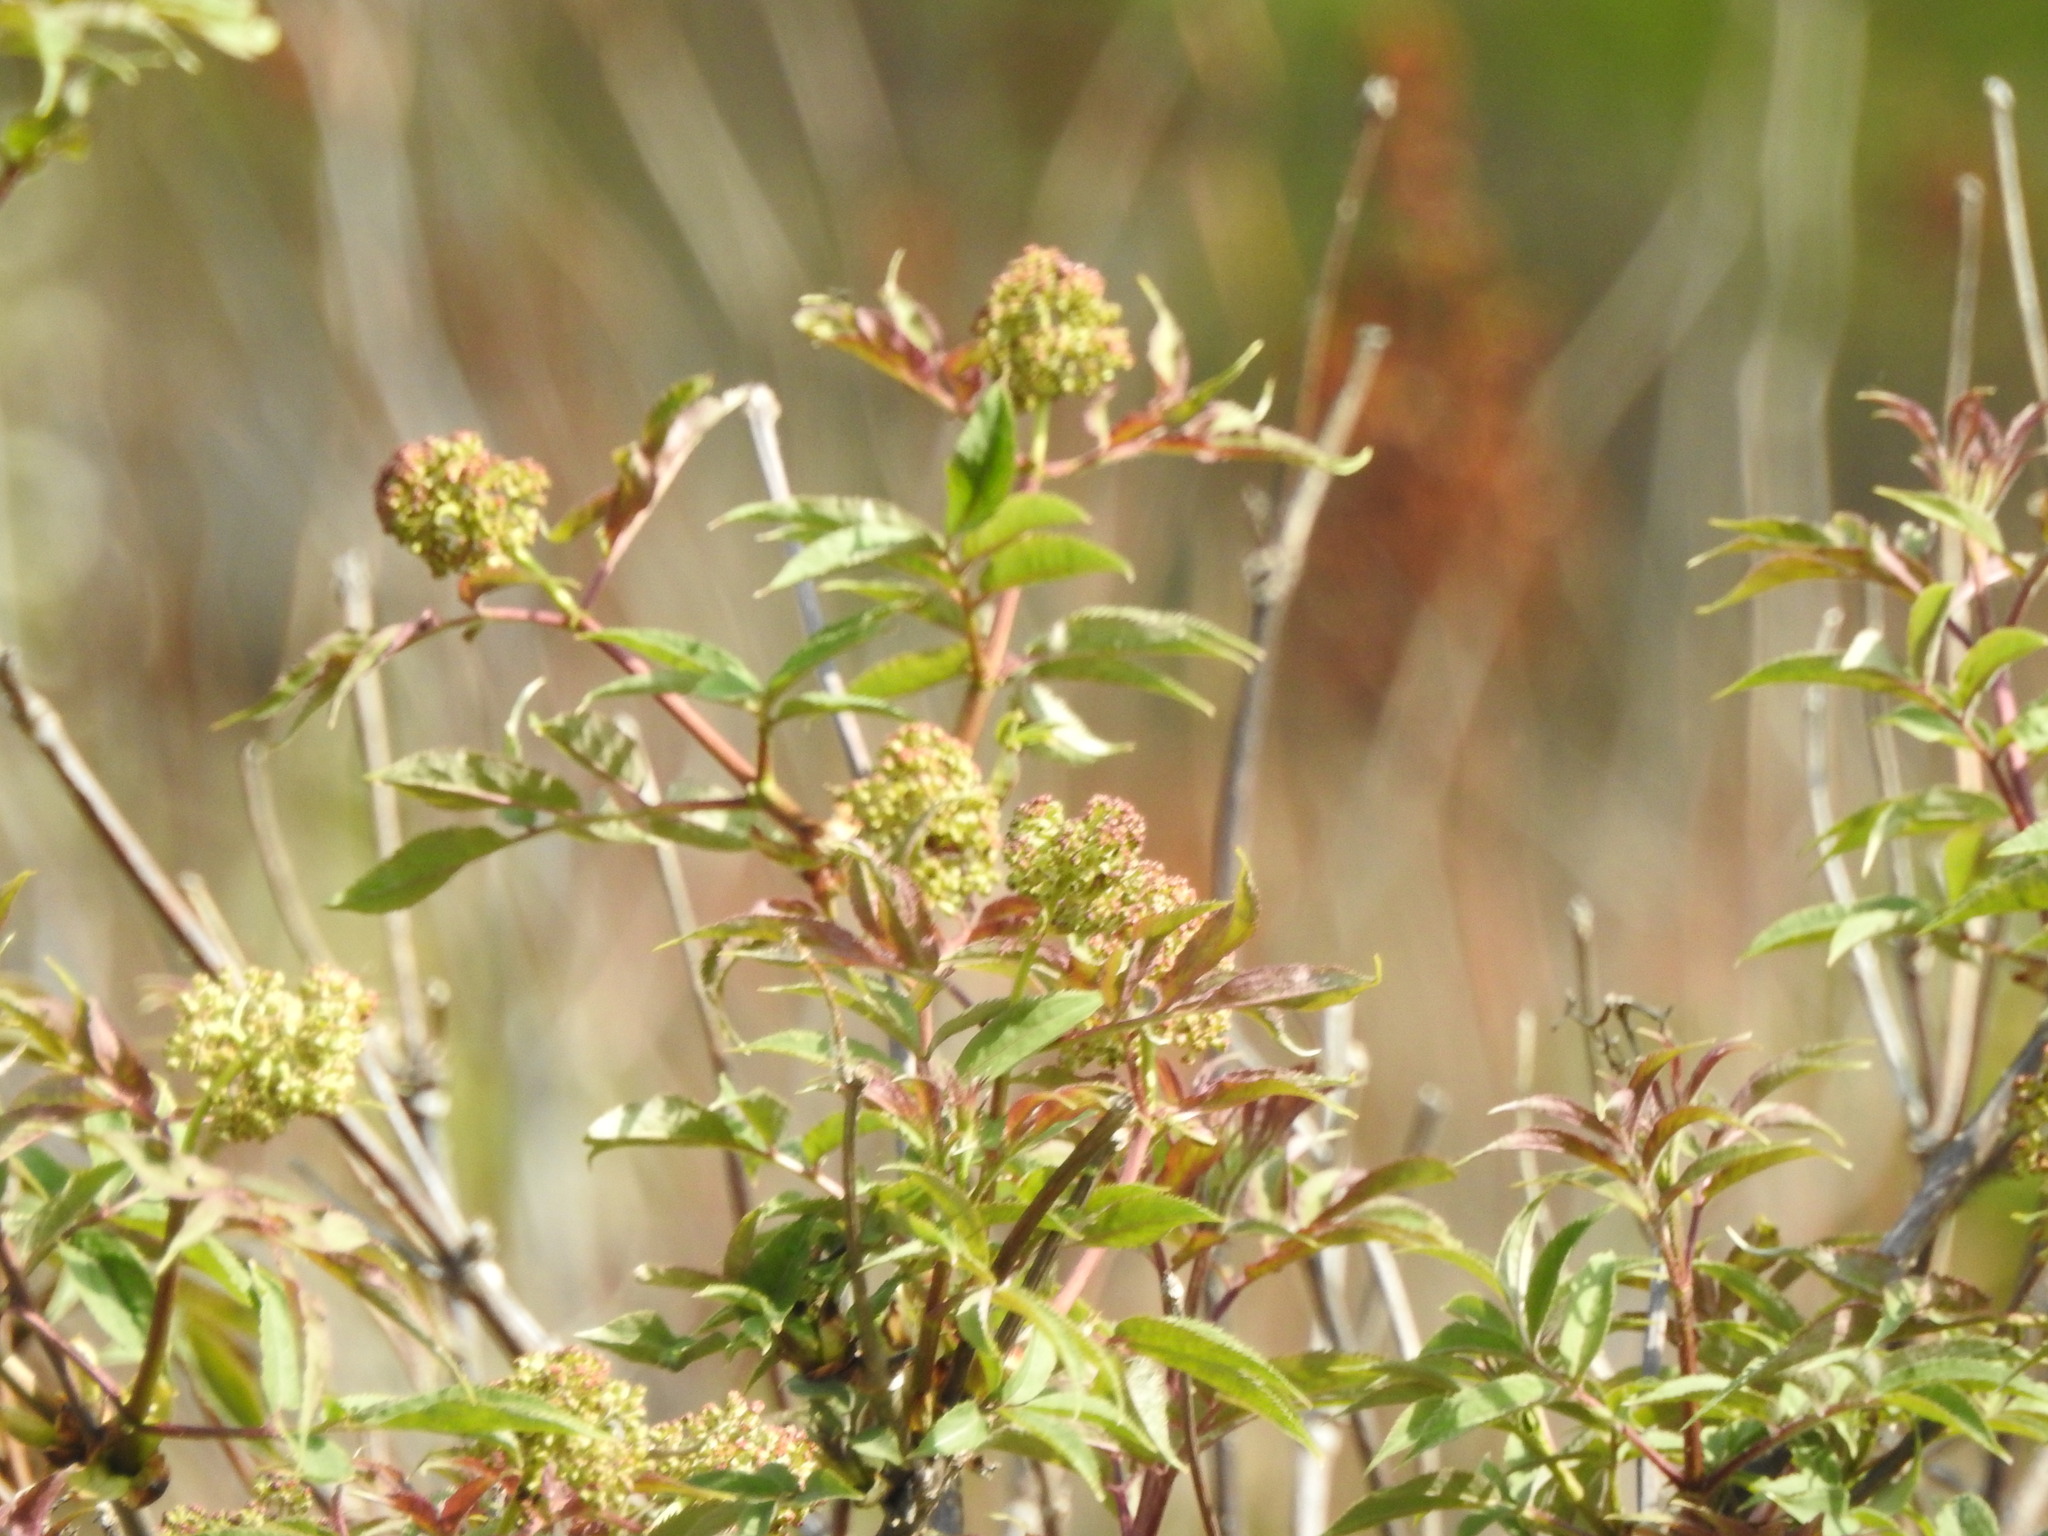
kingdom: Plantae
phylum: Tracheophyta
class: Magnoliopsida
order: Dipsacales
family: Viburnaceae
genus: Sambucus
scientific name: Sambucus sibirica
